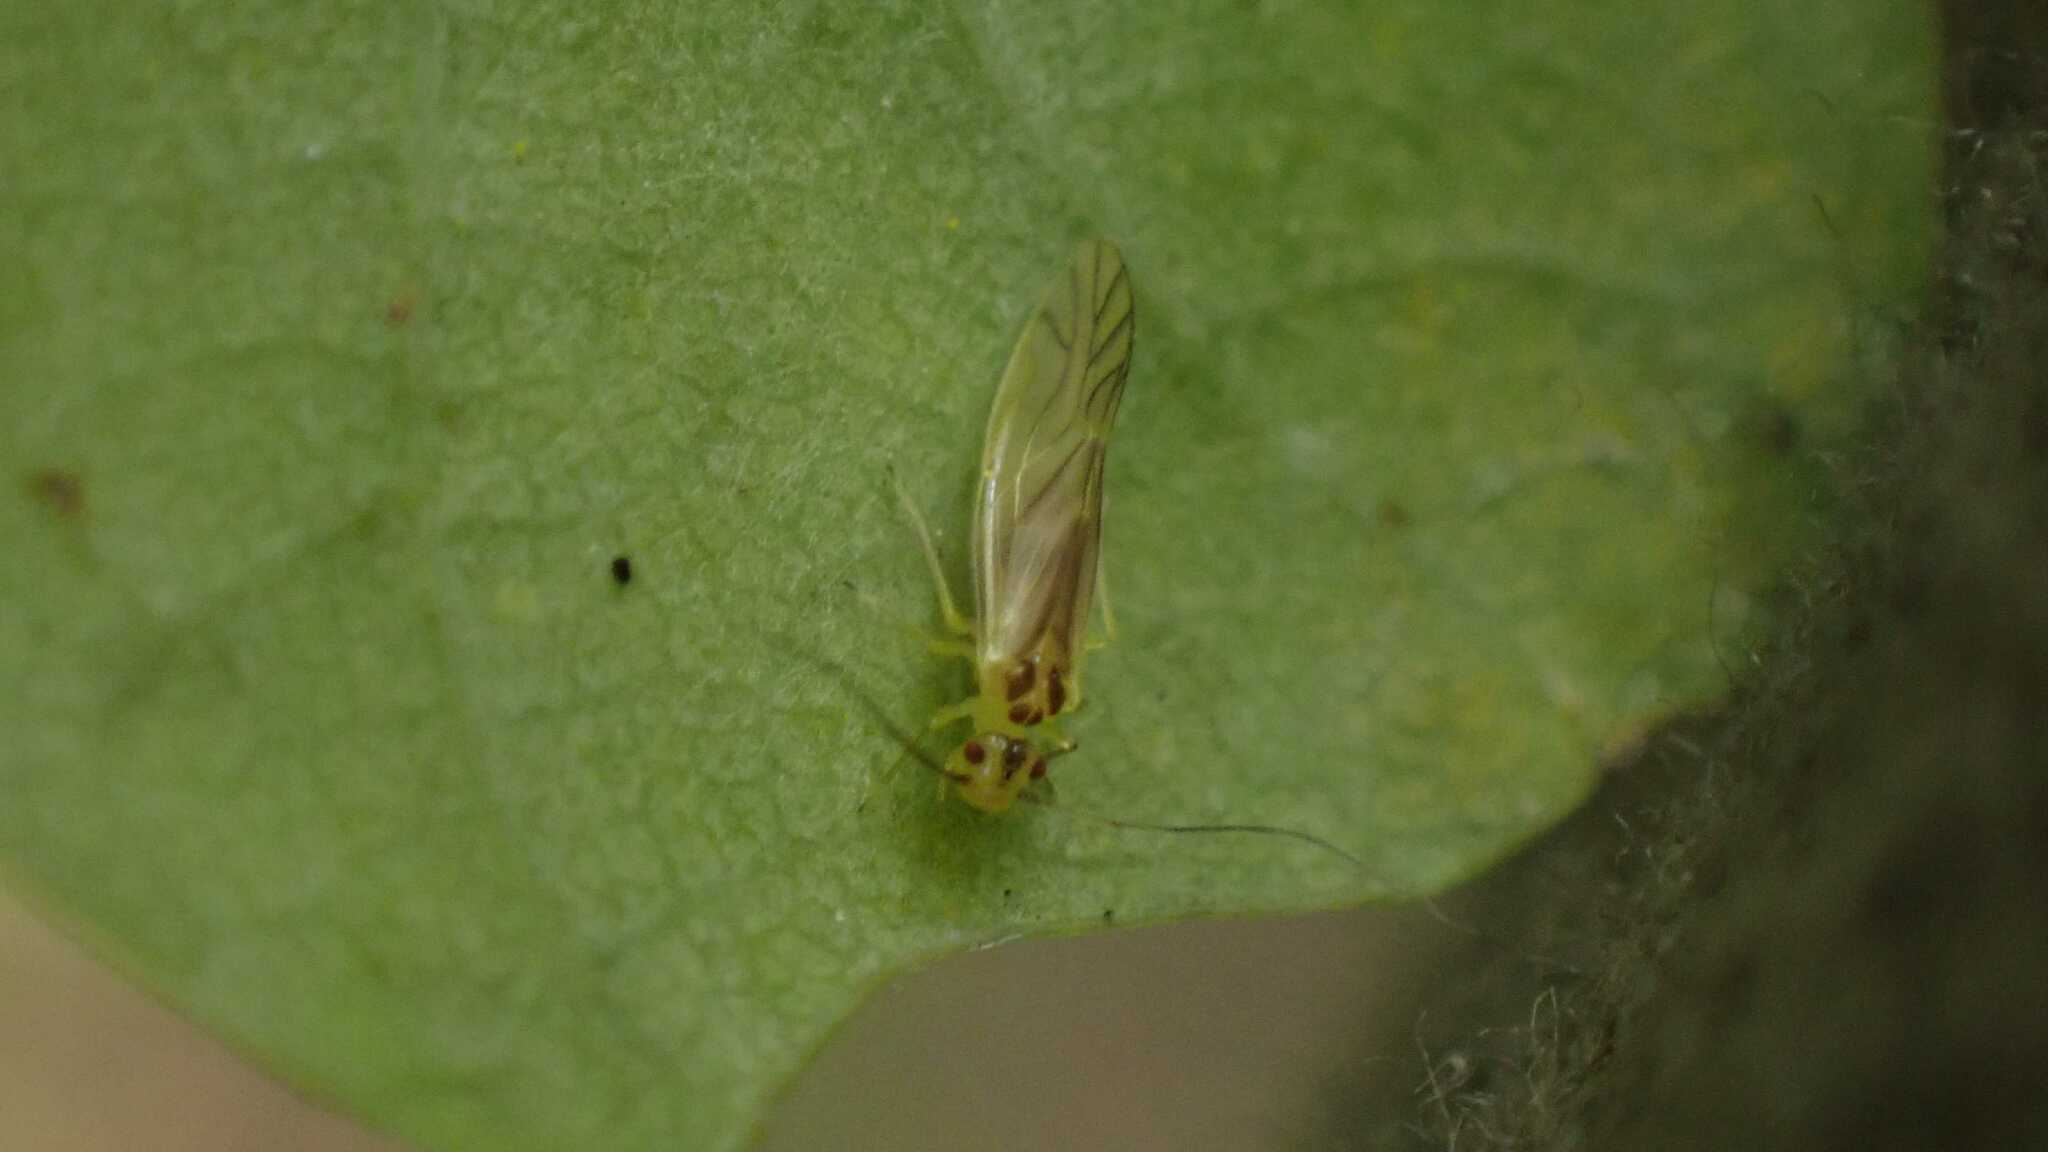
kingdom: Animalia
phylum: Arthropoda
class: Insecta
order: Psocodea
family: Caeciliusidae
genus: Valenzuela
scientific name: Valenzuela flavidus
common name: Yellow barklouse
